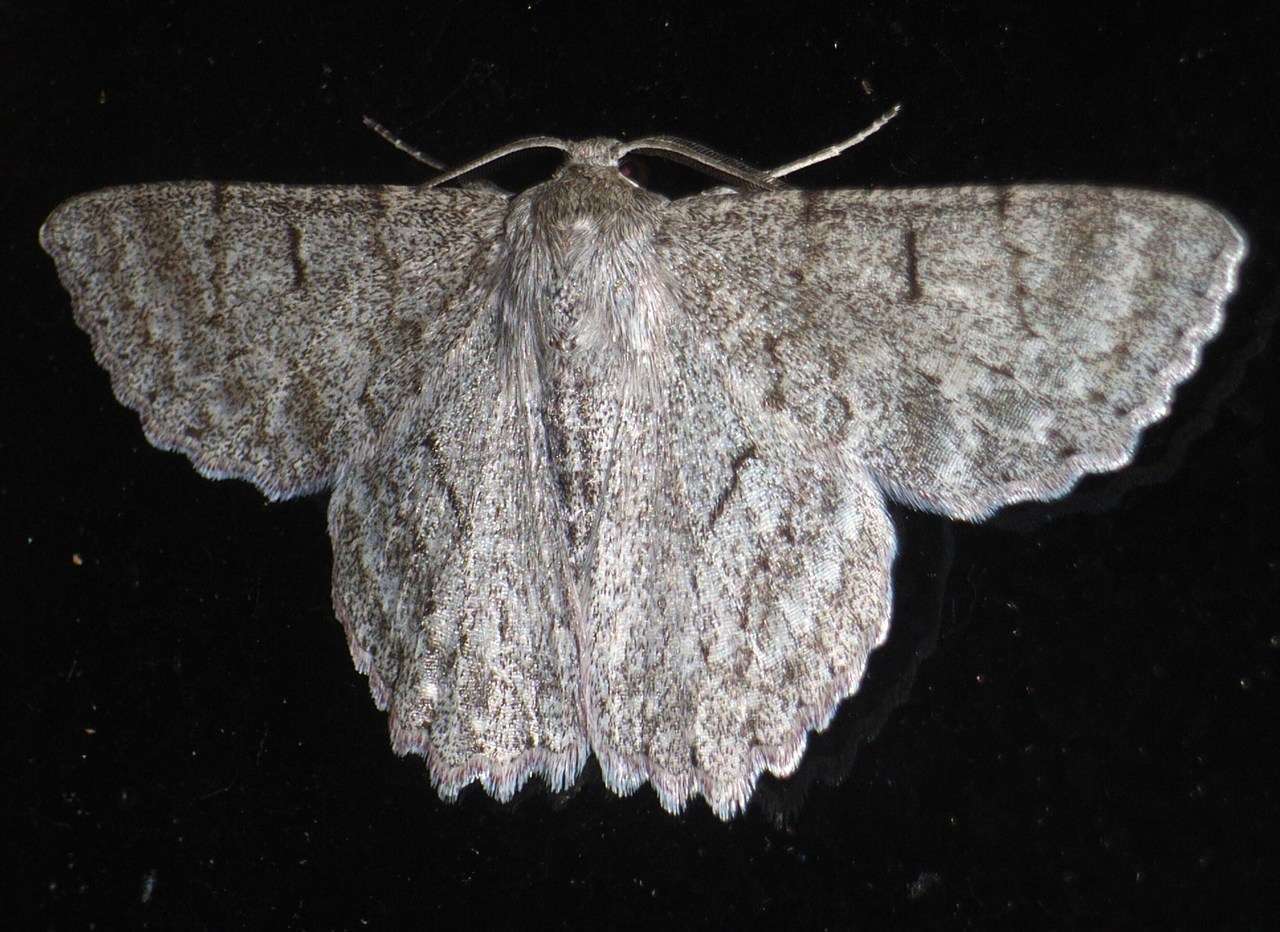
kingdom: Animalia
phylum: Arthropoda
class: Insecta
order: Lepidoptera
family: Geometridae
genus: Crypsiphona
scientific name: Crypsiphona ocultaria
